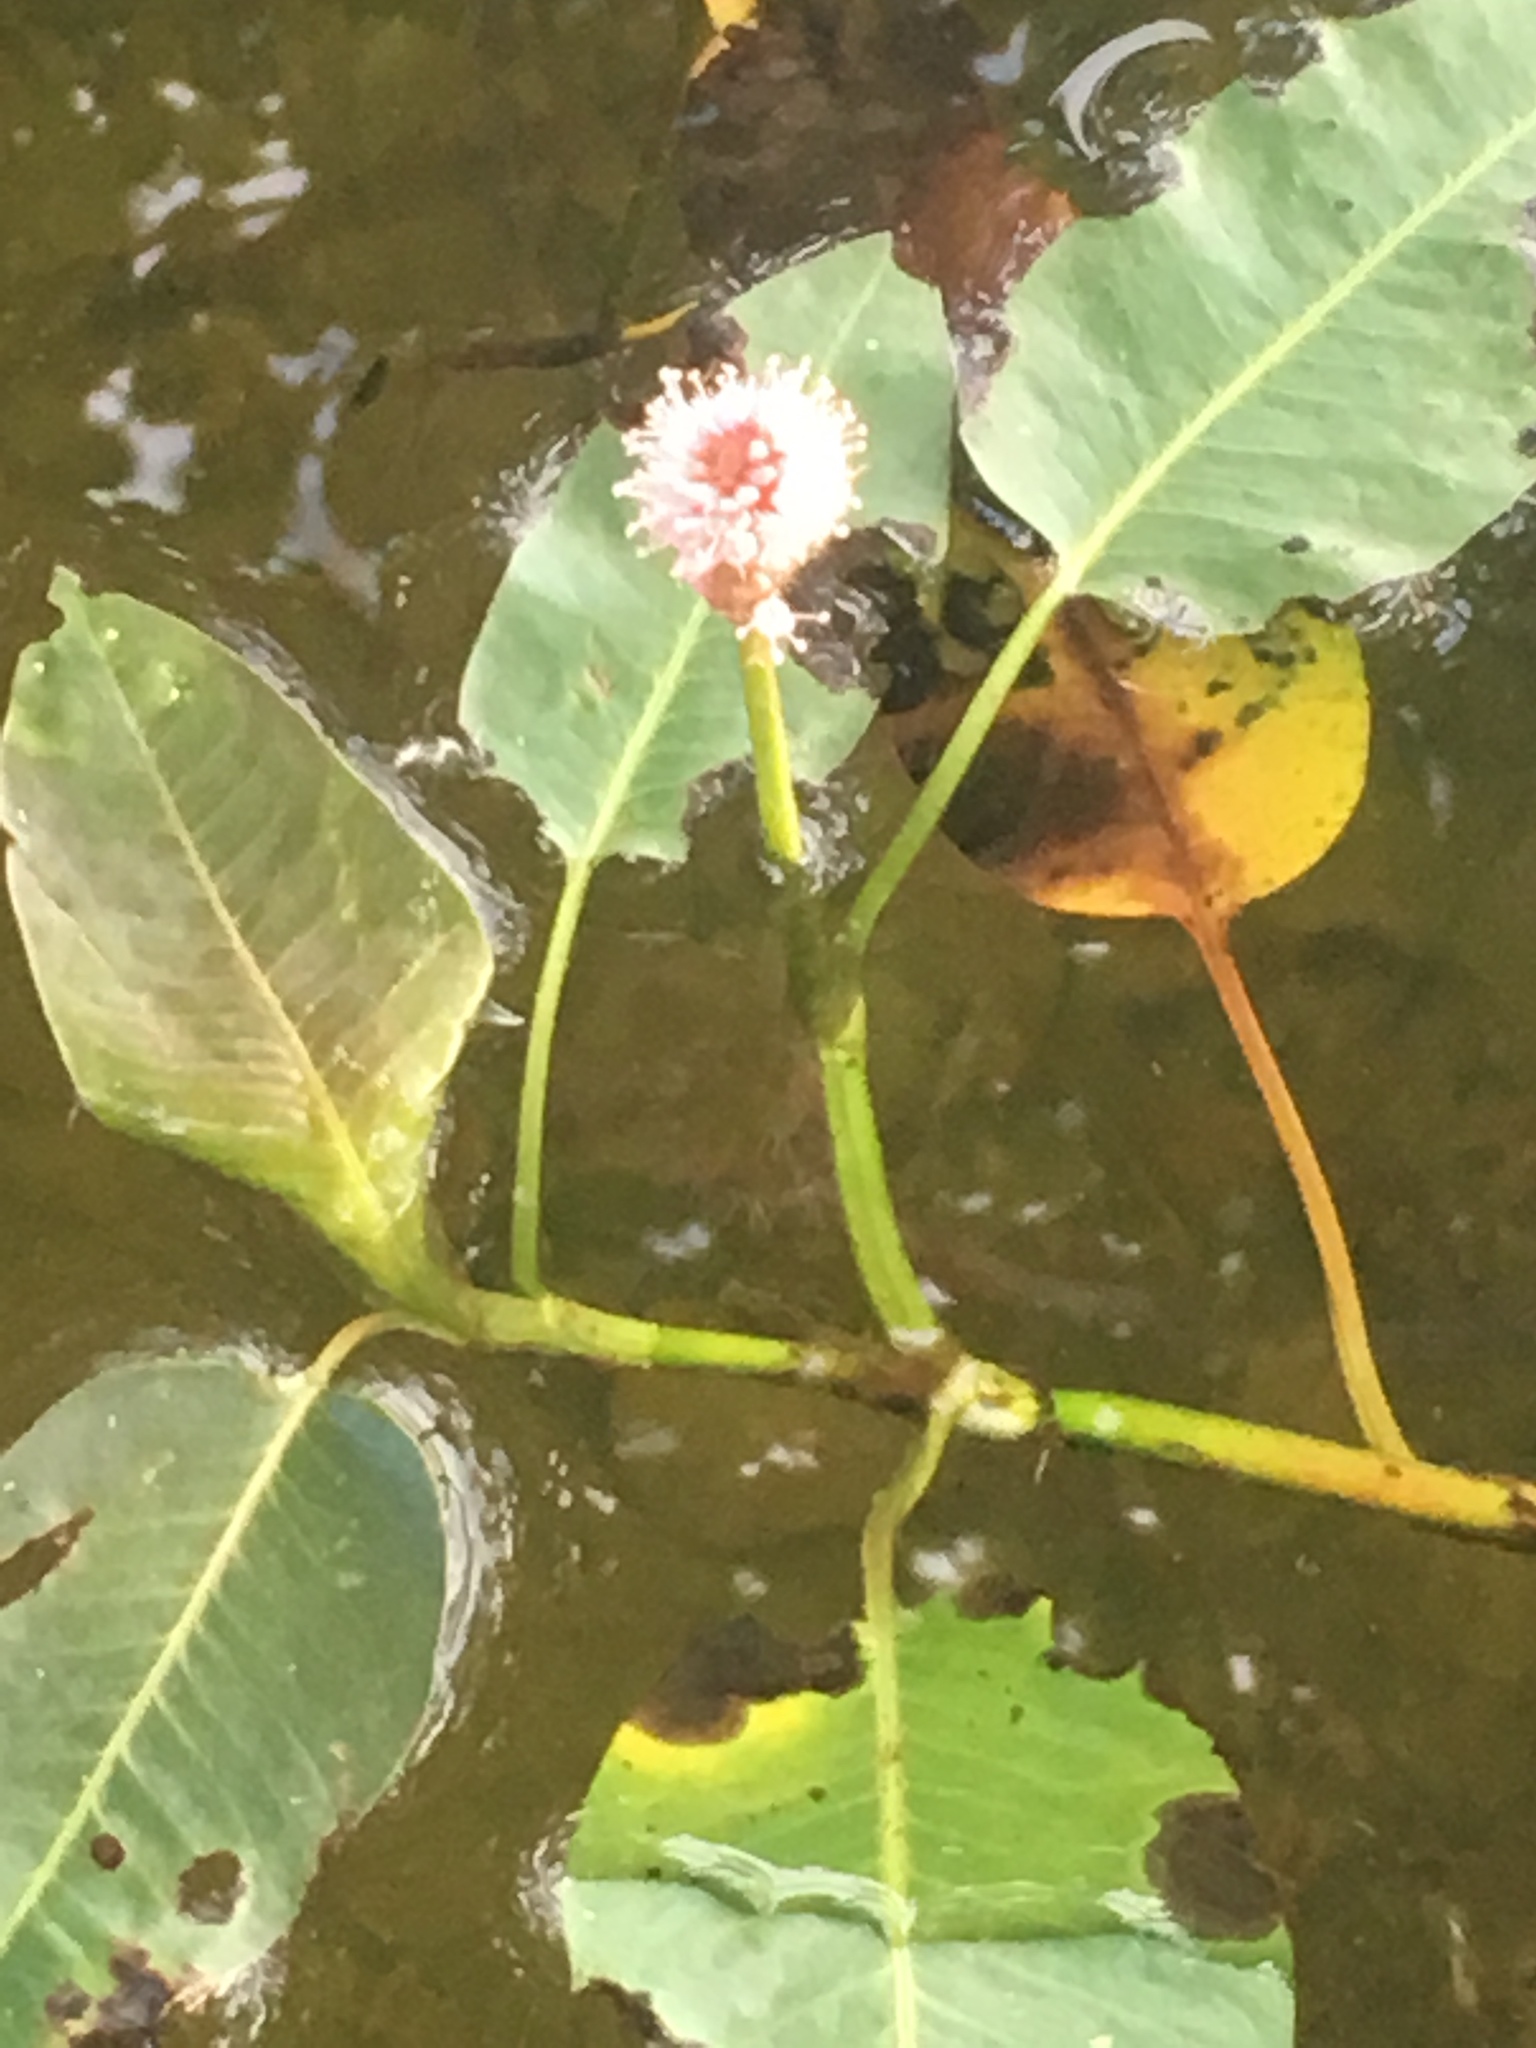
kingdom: Plantae
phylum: Tracheophyta
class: Magnoliopsida
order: Caryophyllales
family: Polygonaceae
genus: Persicaria
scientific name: Persicaria amphibia
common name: Amphibious bistort
